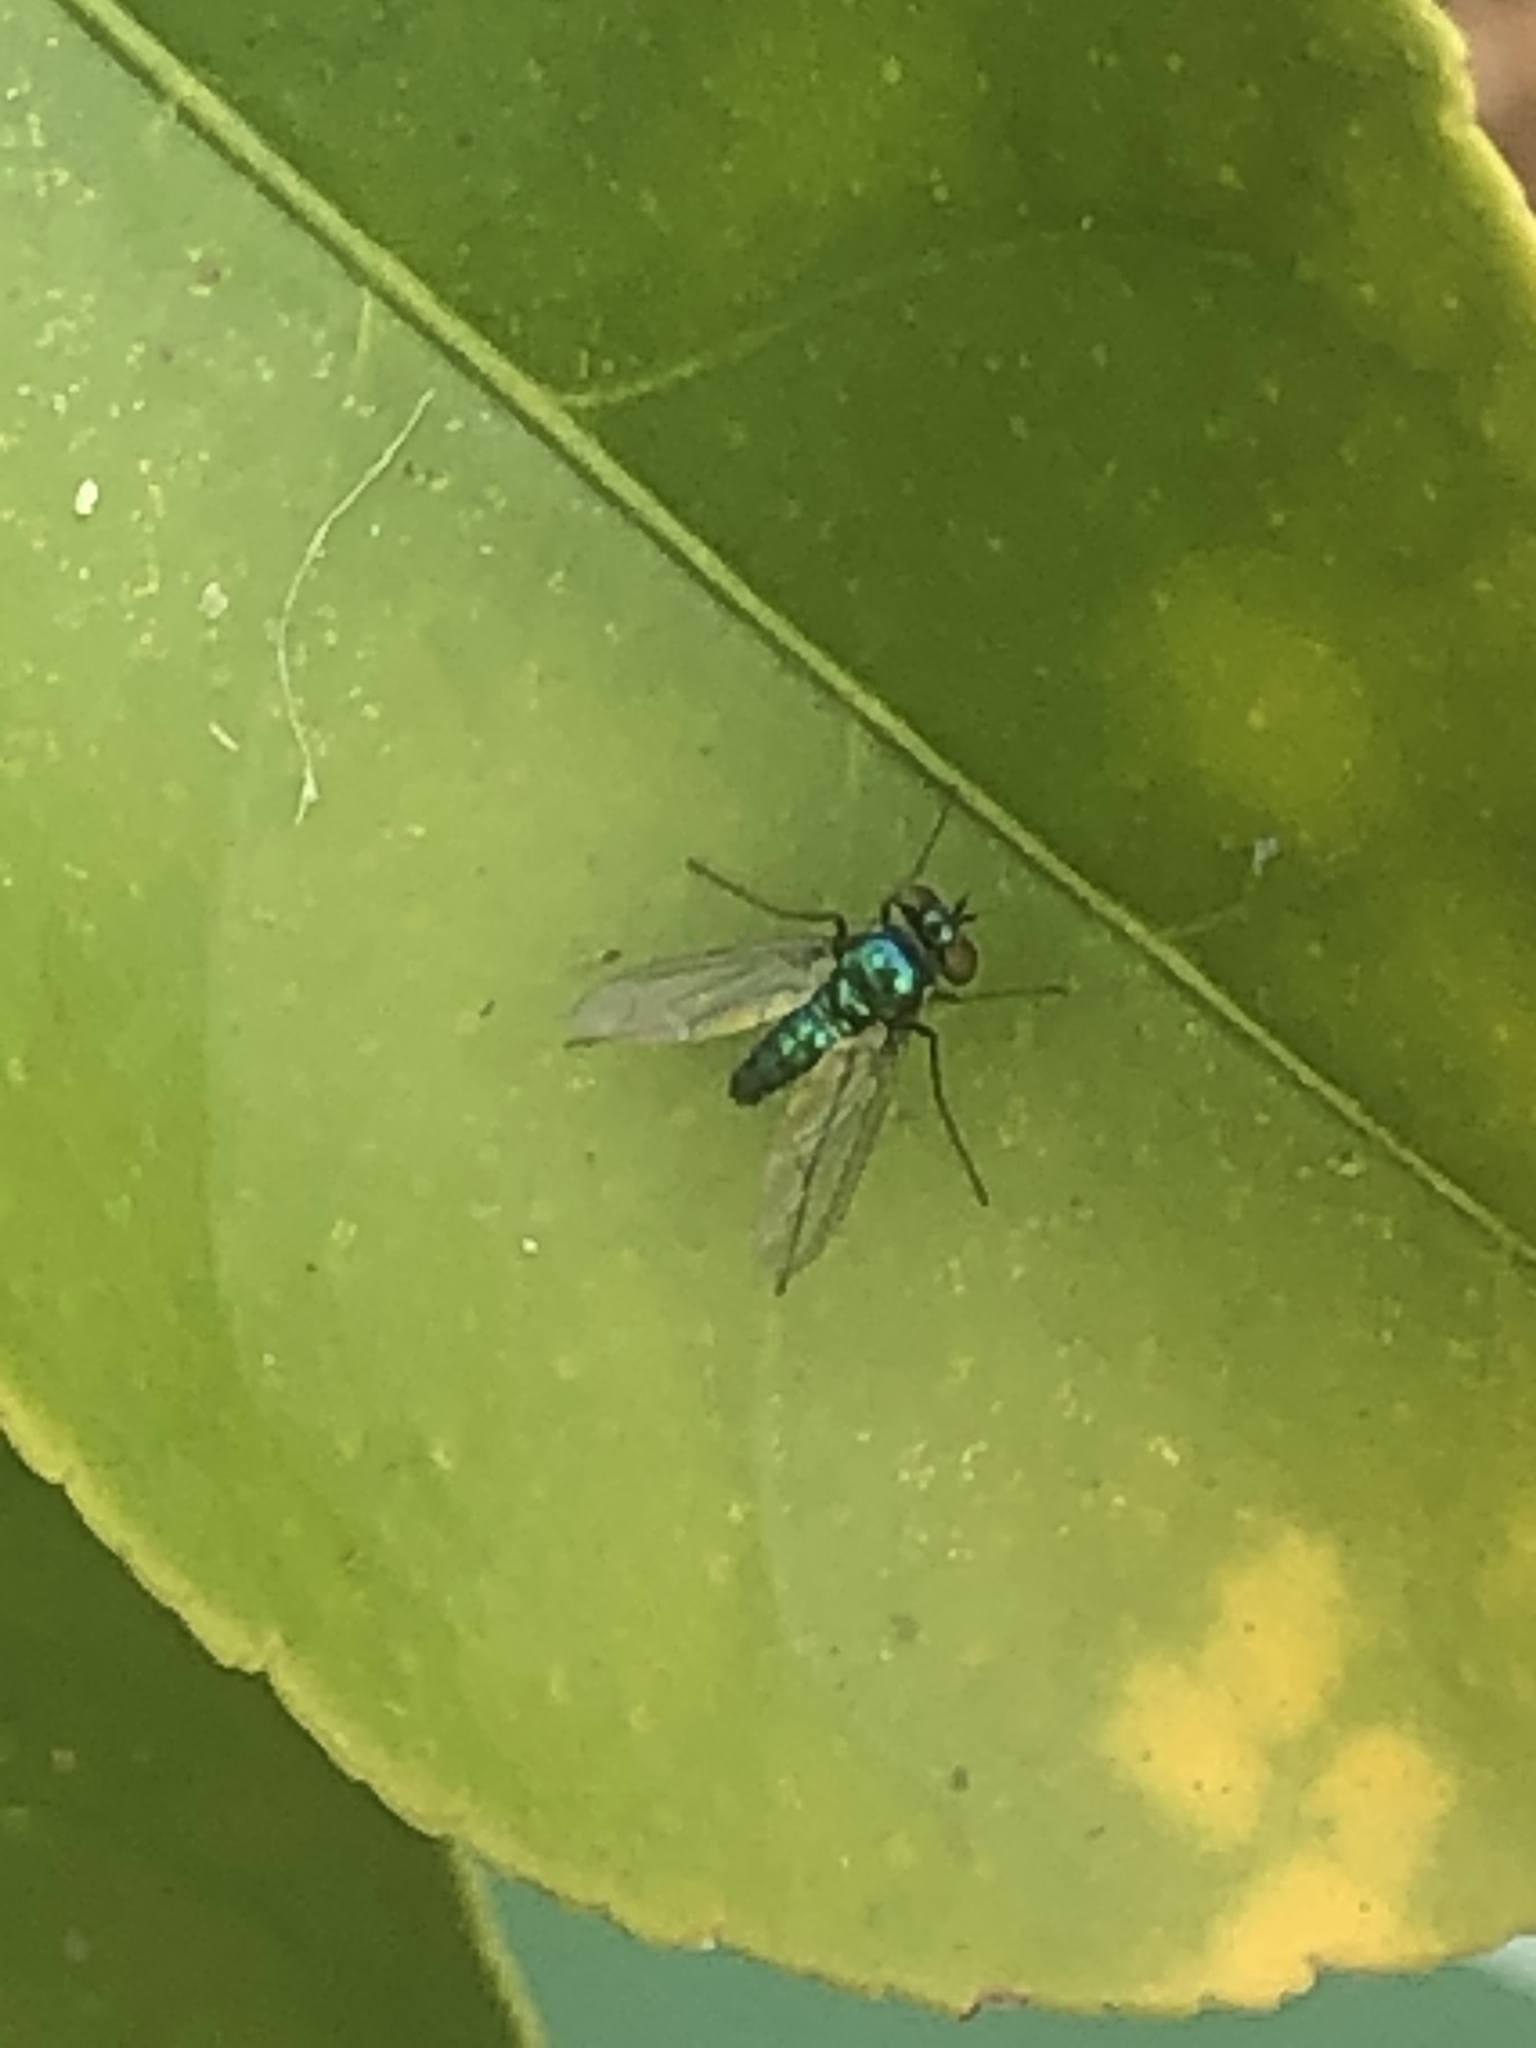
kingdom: Animalia
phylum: Arthropoda
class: Insecta
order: Diptera
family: Dolichopodidae
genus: Condylostylus
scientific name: Condylostylus purpureus
